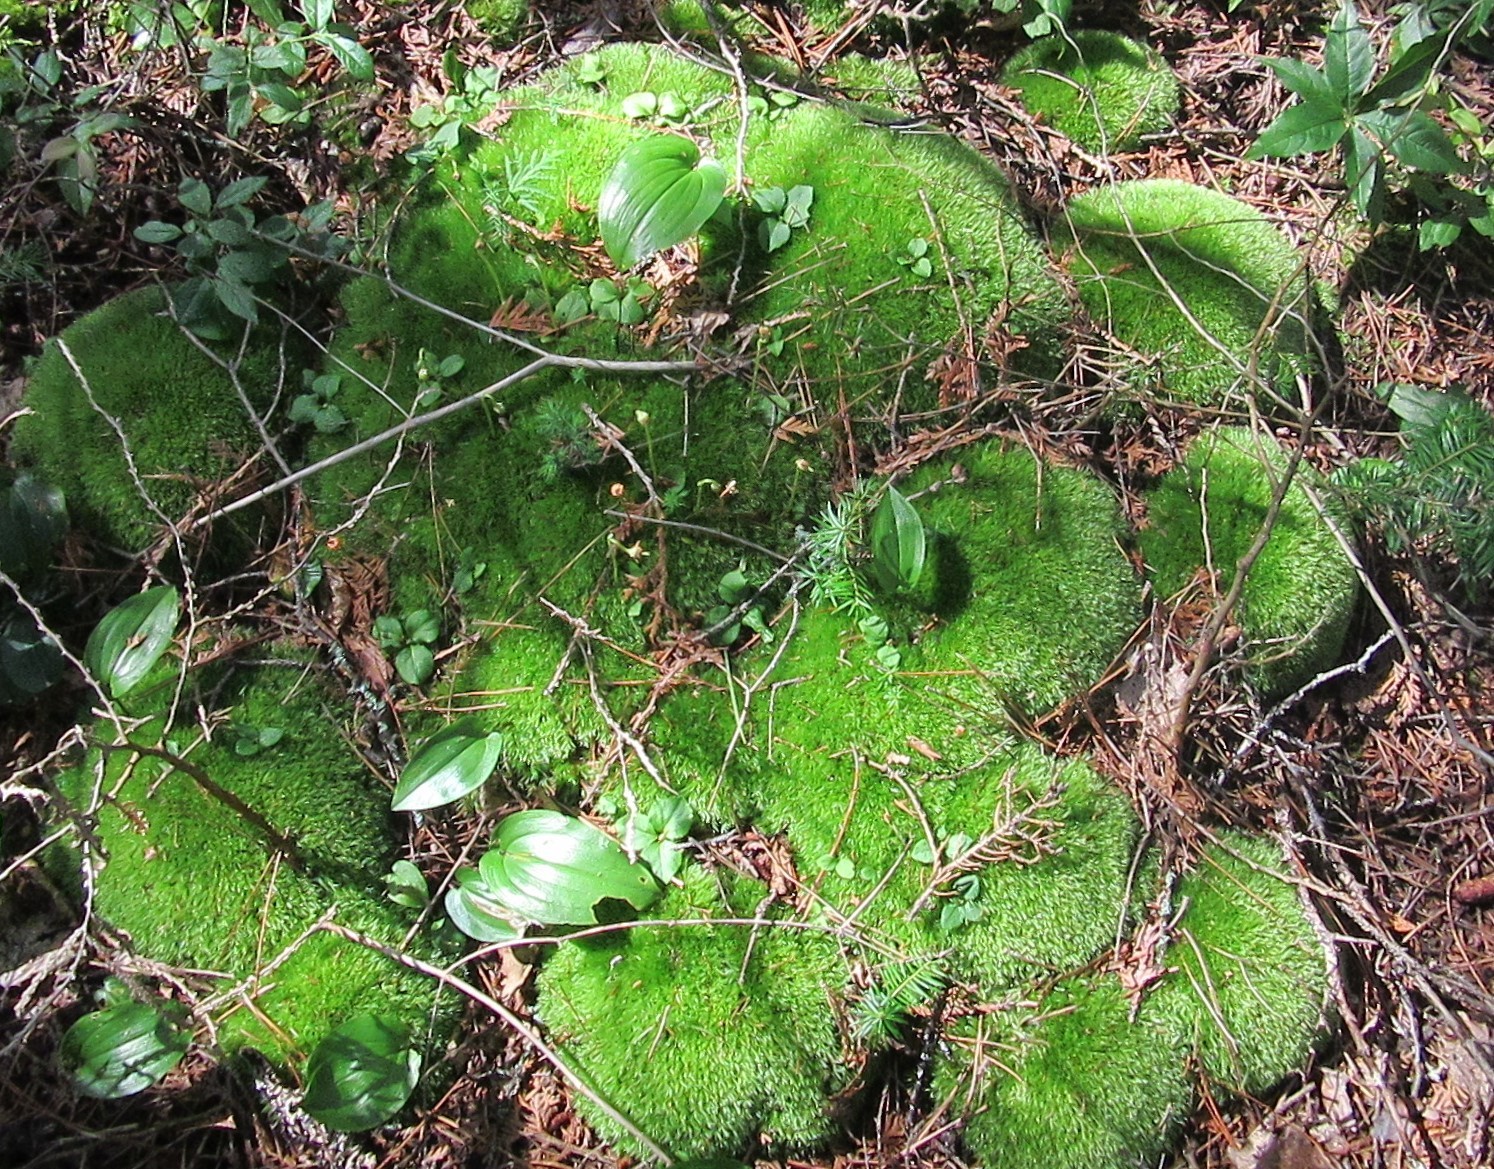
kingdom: Plantae
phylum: Bryophyta
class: Bryopsida
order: Dicranales
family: Leucobryaceae
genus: Leucobryum
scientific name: Leucobryum glaucum
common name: Large white-moss
